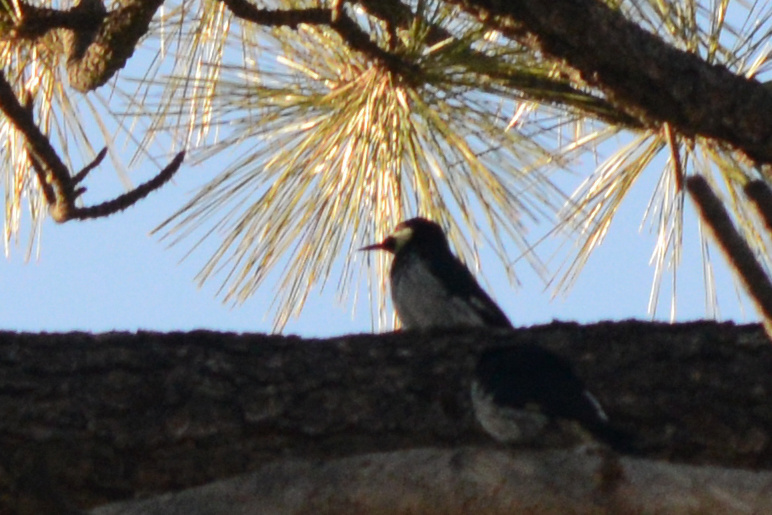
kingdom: Animalia
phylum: Chordata
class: Aves
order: Piciformes
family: Picidae
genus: Melanerpes
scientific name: Melanerpes formicivorus
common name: Acorn woodpecker
